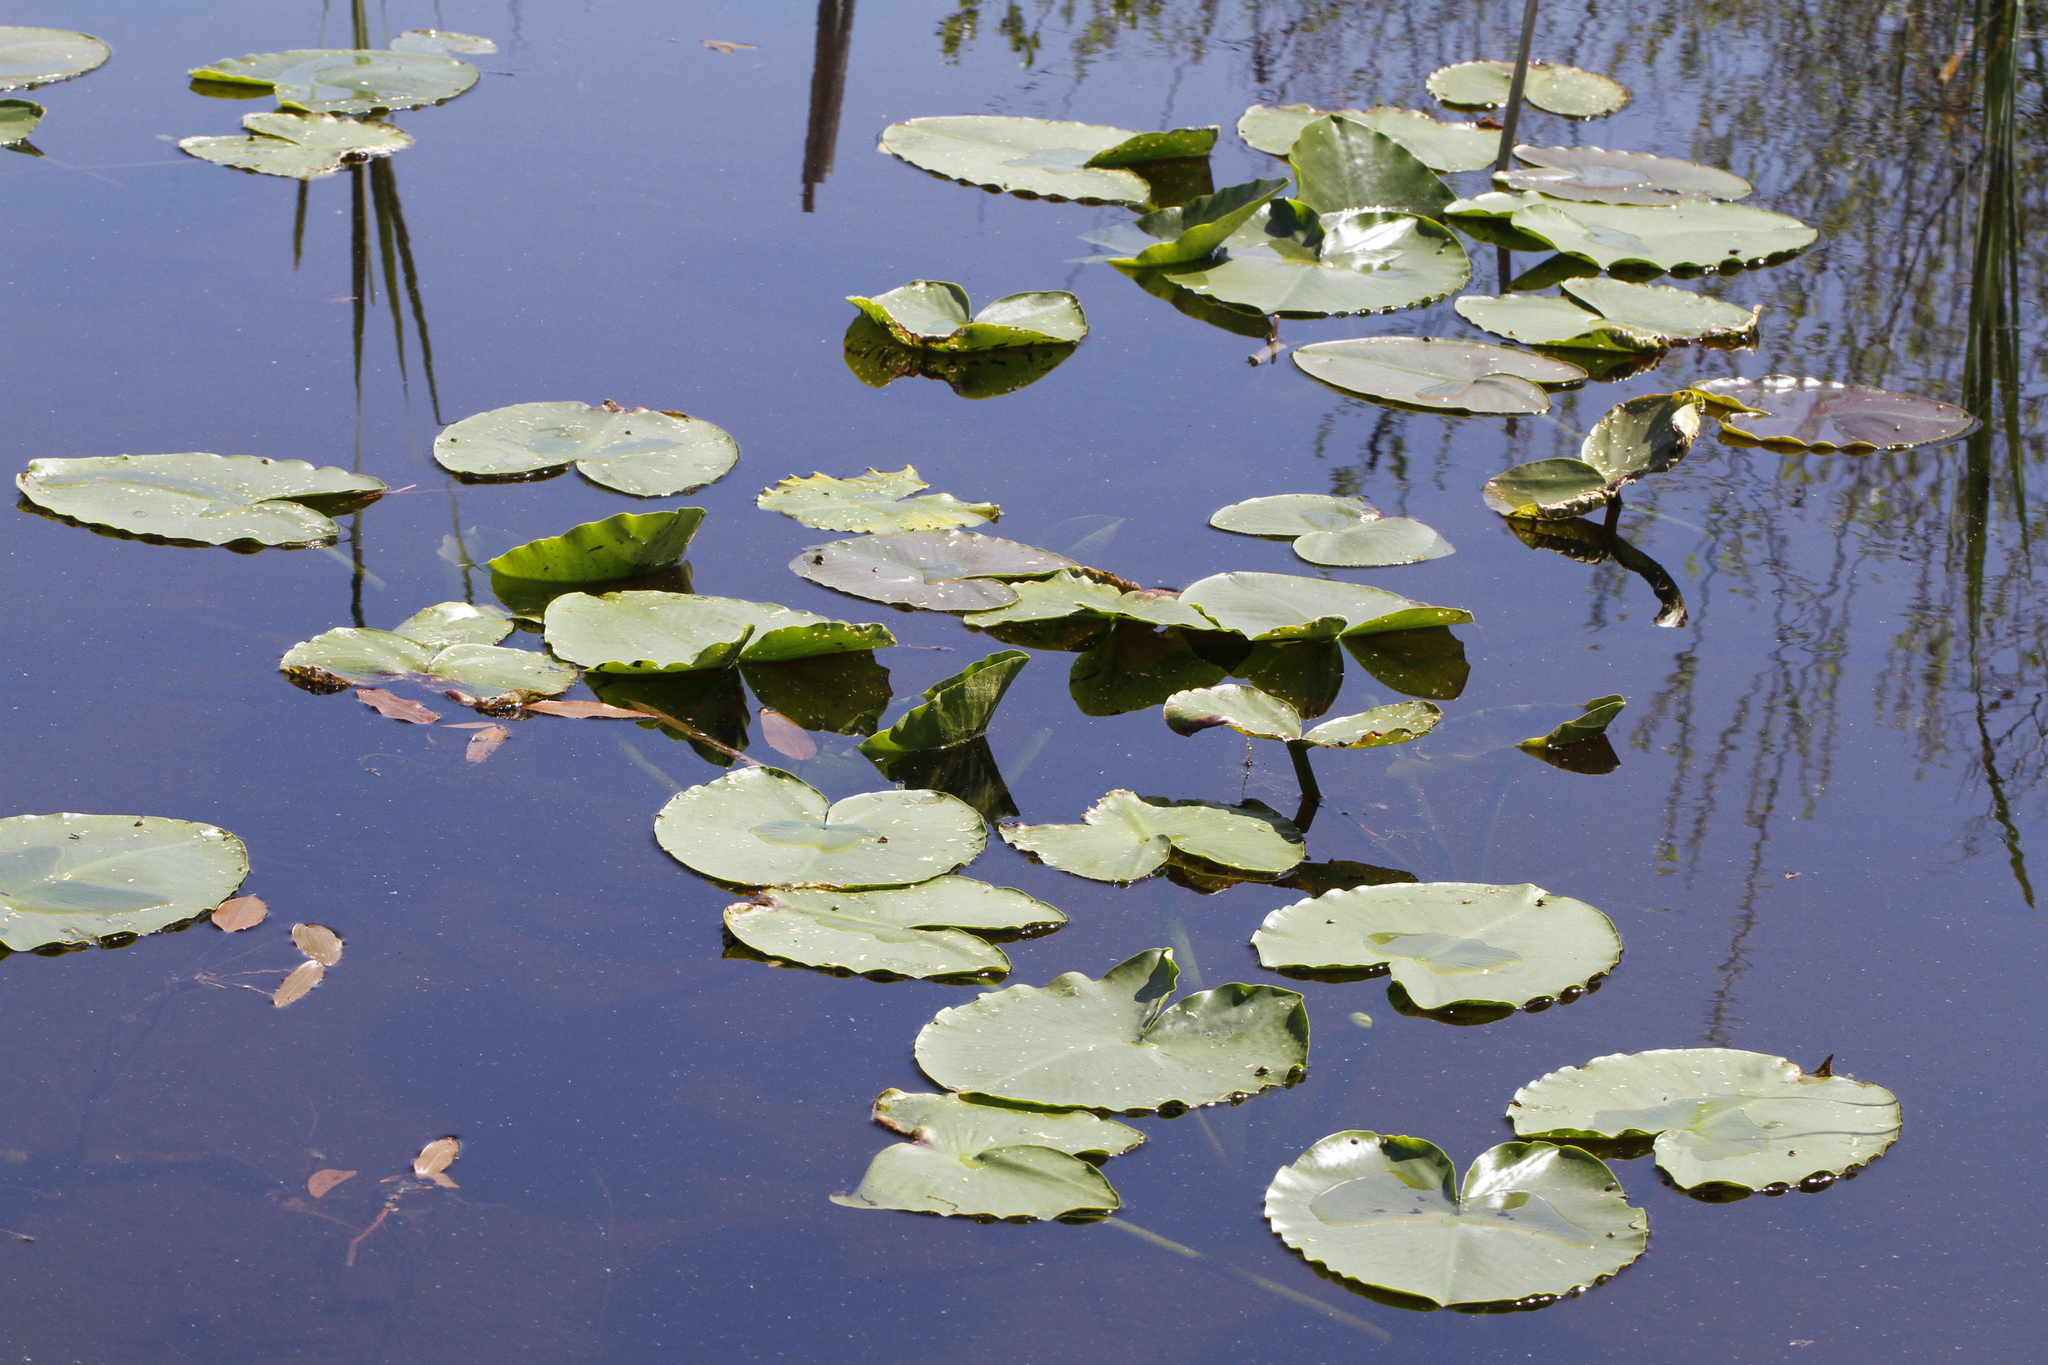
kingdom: Plantae
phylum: Tracheophyta
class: Magnoliopsida
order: Nymphaeales
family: Nymphaeaceae
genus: Nuphar
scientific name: Nuphar polysepala
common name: Rocky mountain cow-lily
